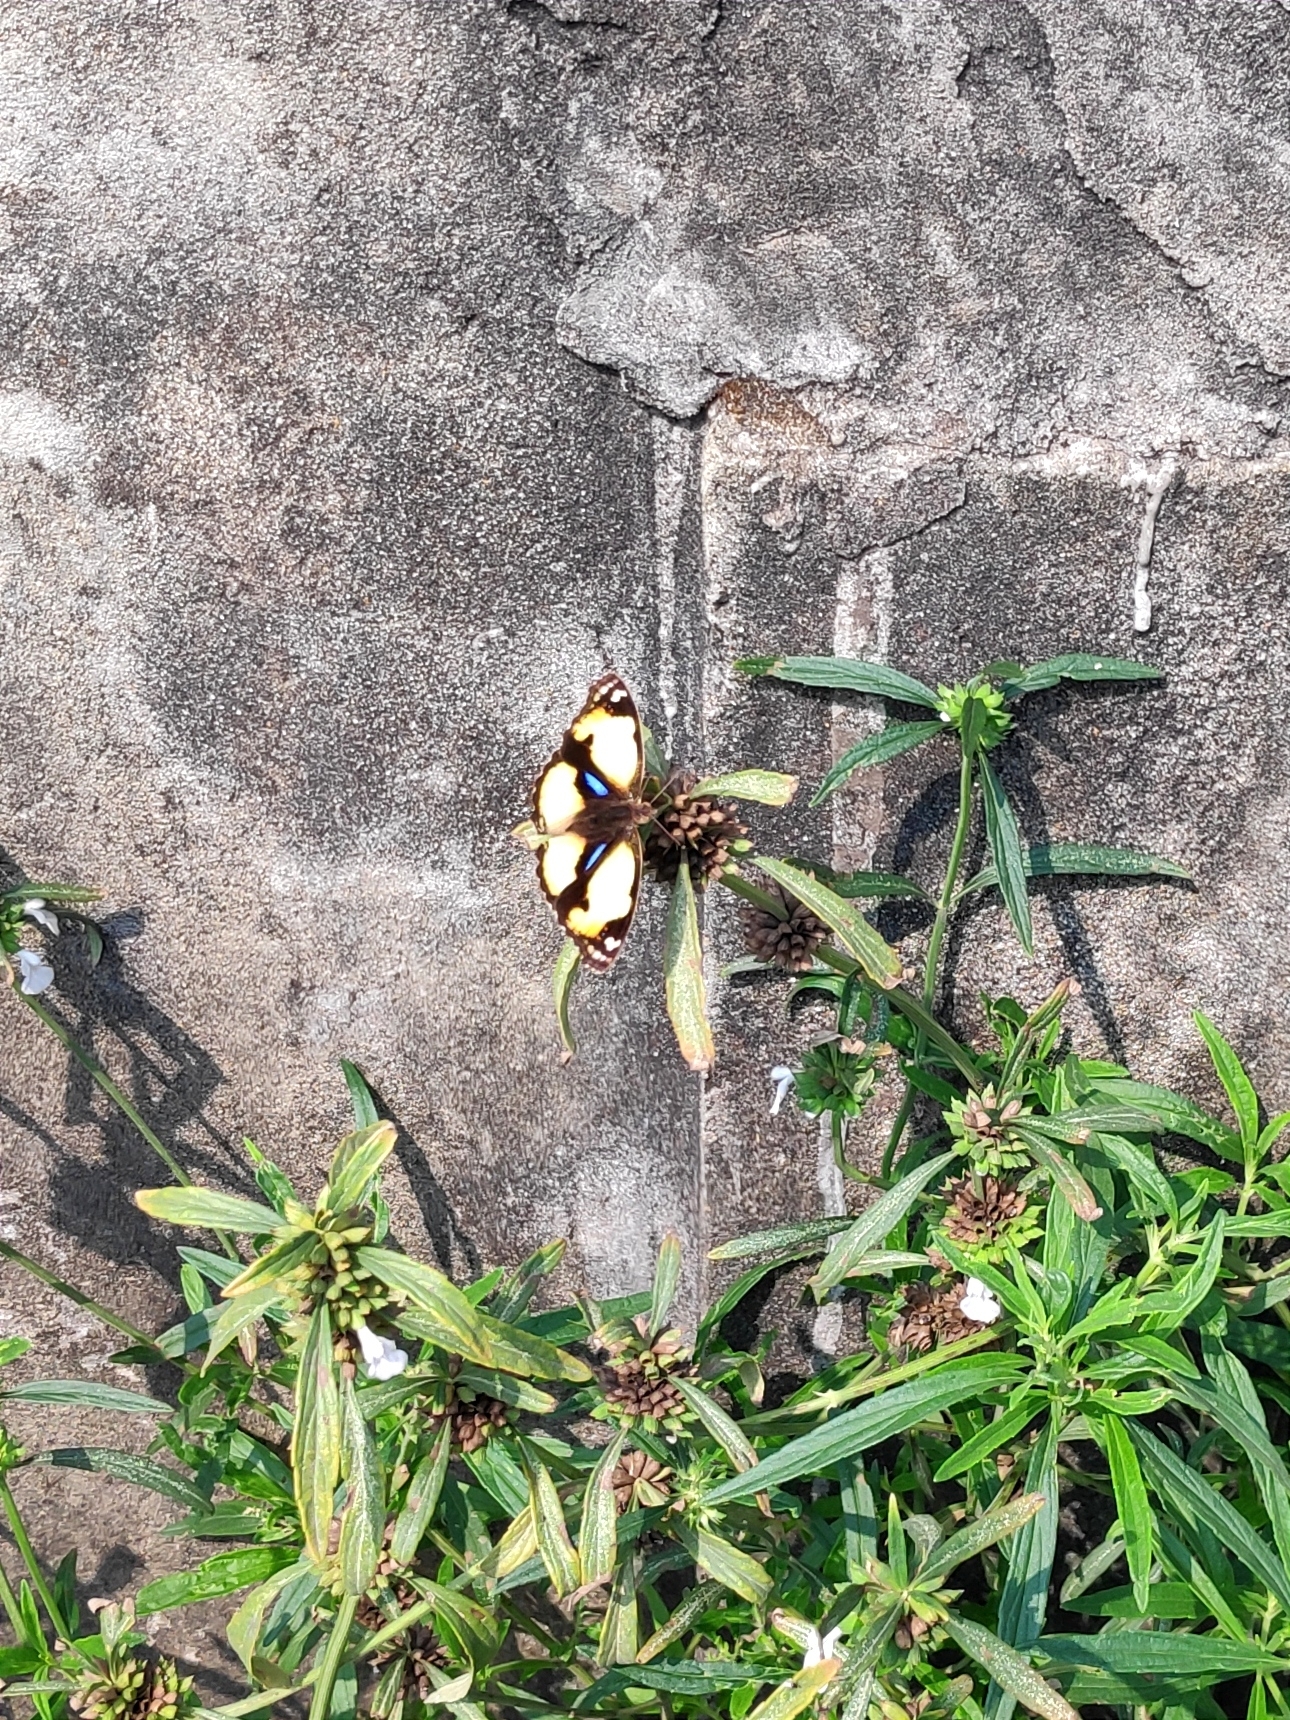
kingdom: Animalia
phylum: Arthropoda
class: Insecta
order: Lepidoptera
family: Nymphalidae
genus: Junonia
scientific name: Junonia hierta
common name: Yellow pansy
